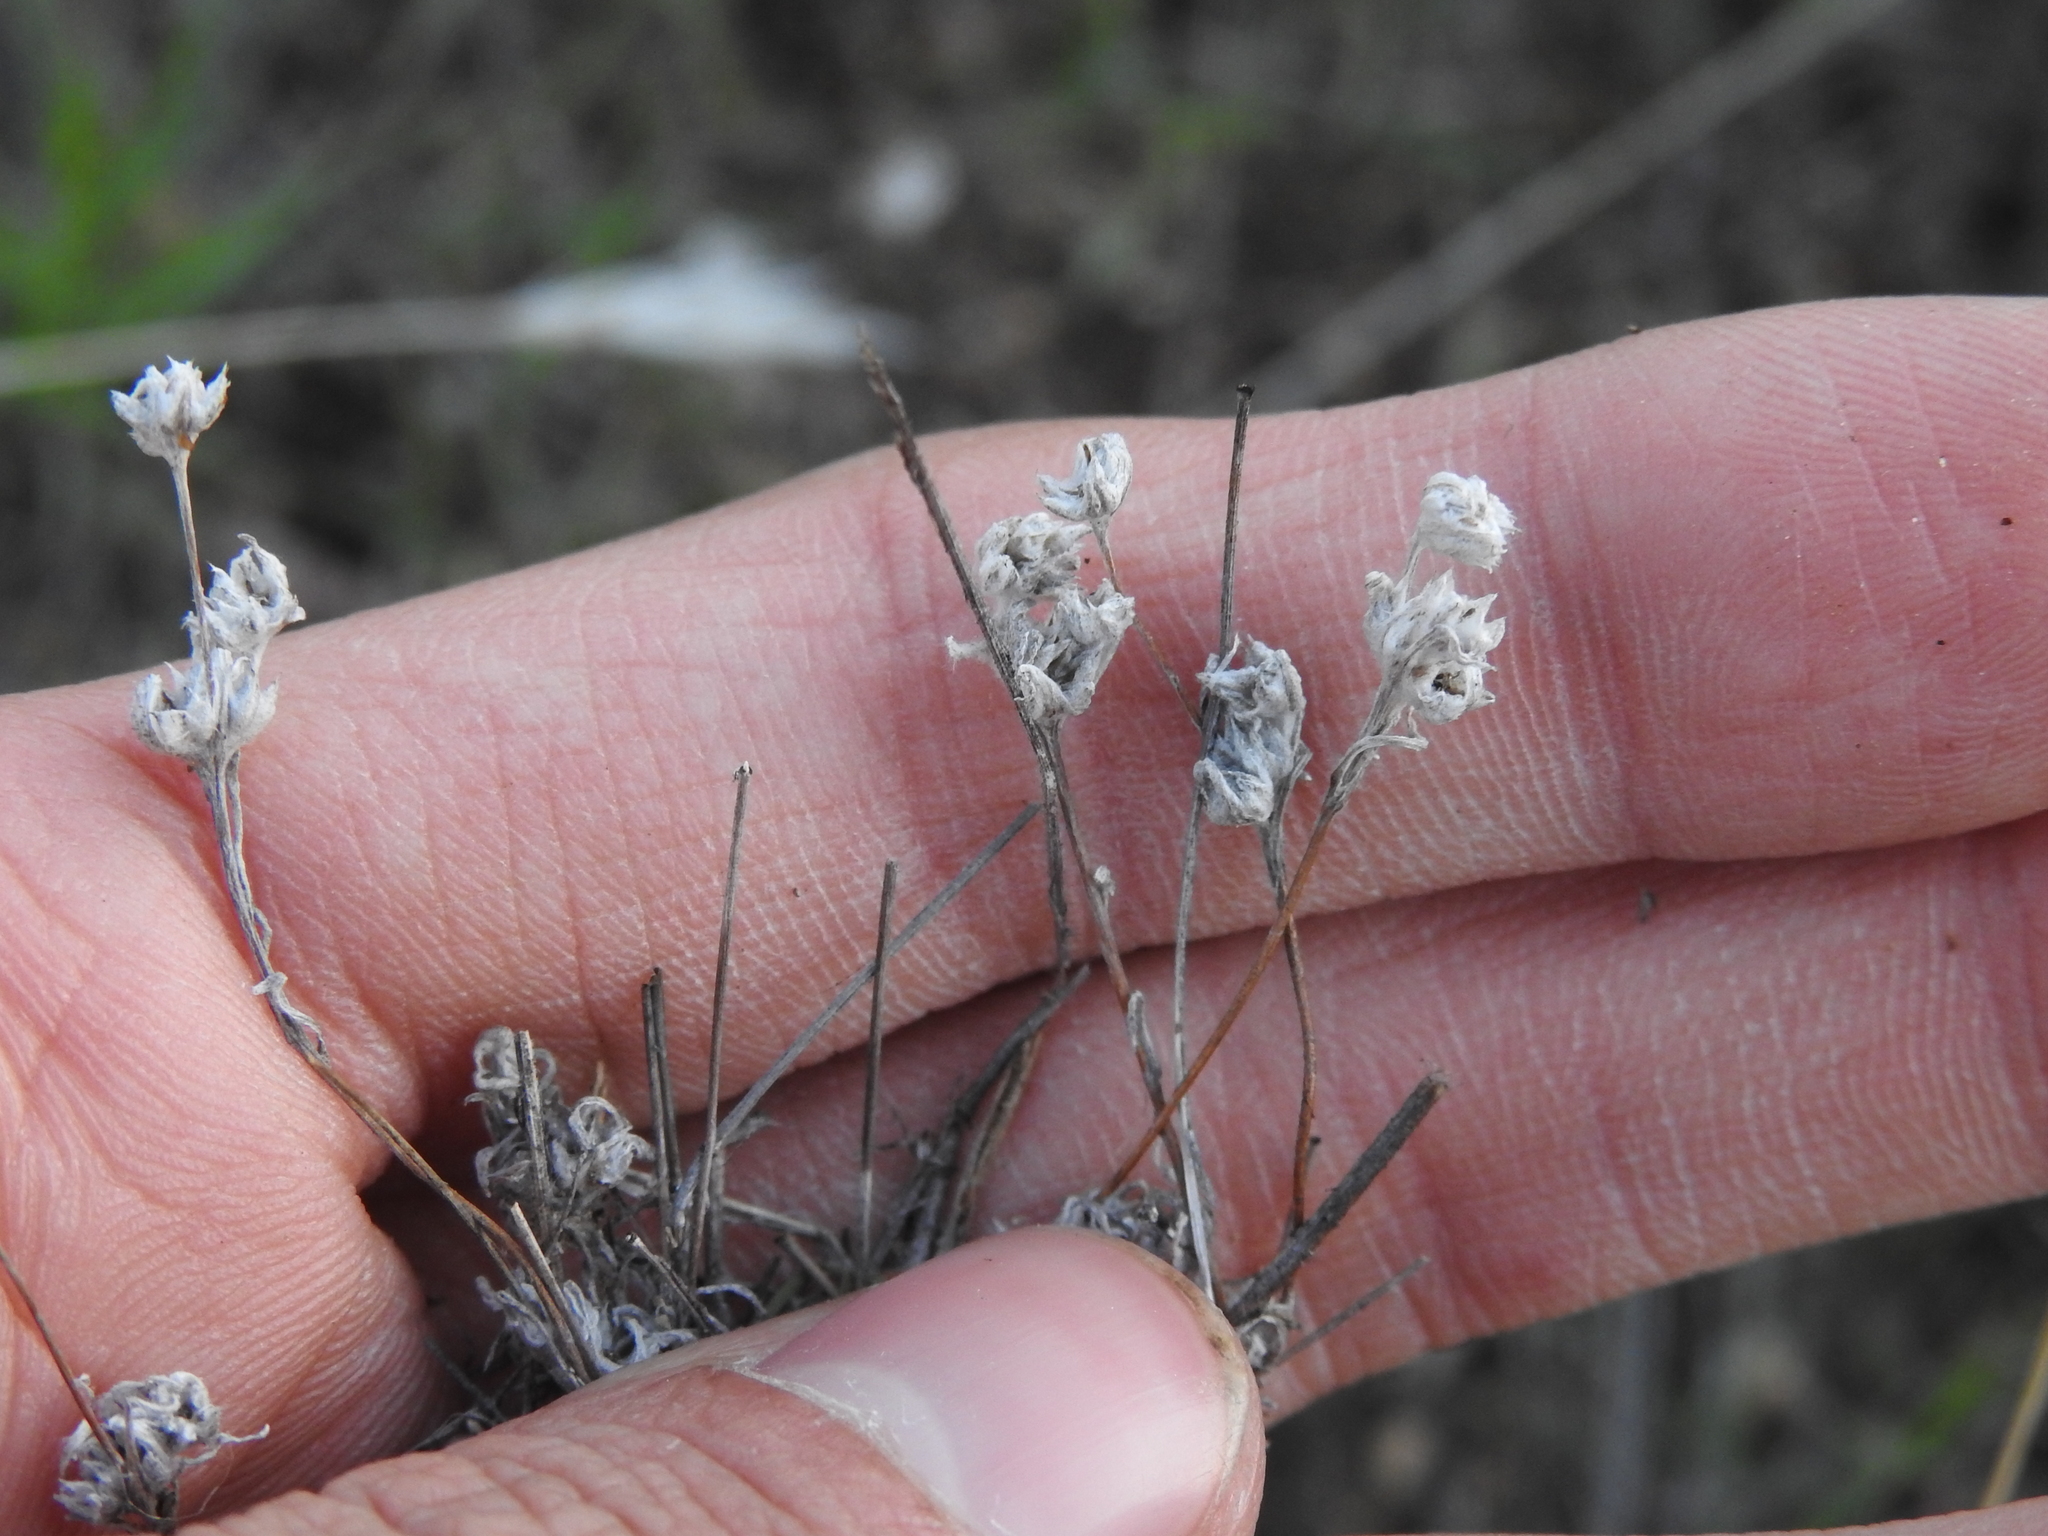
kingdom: Plantae
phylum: Tracheophyta
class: Magnoliopsida
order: Asterales
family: Asteraceae
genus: Logfia
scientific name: Logfia arizonica
